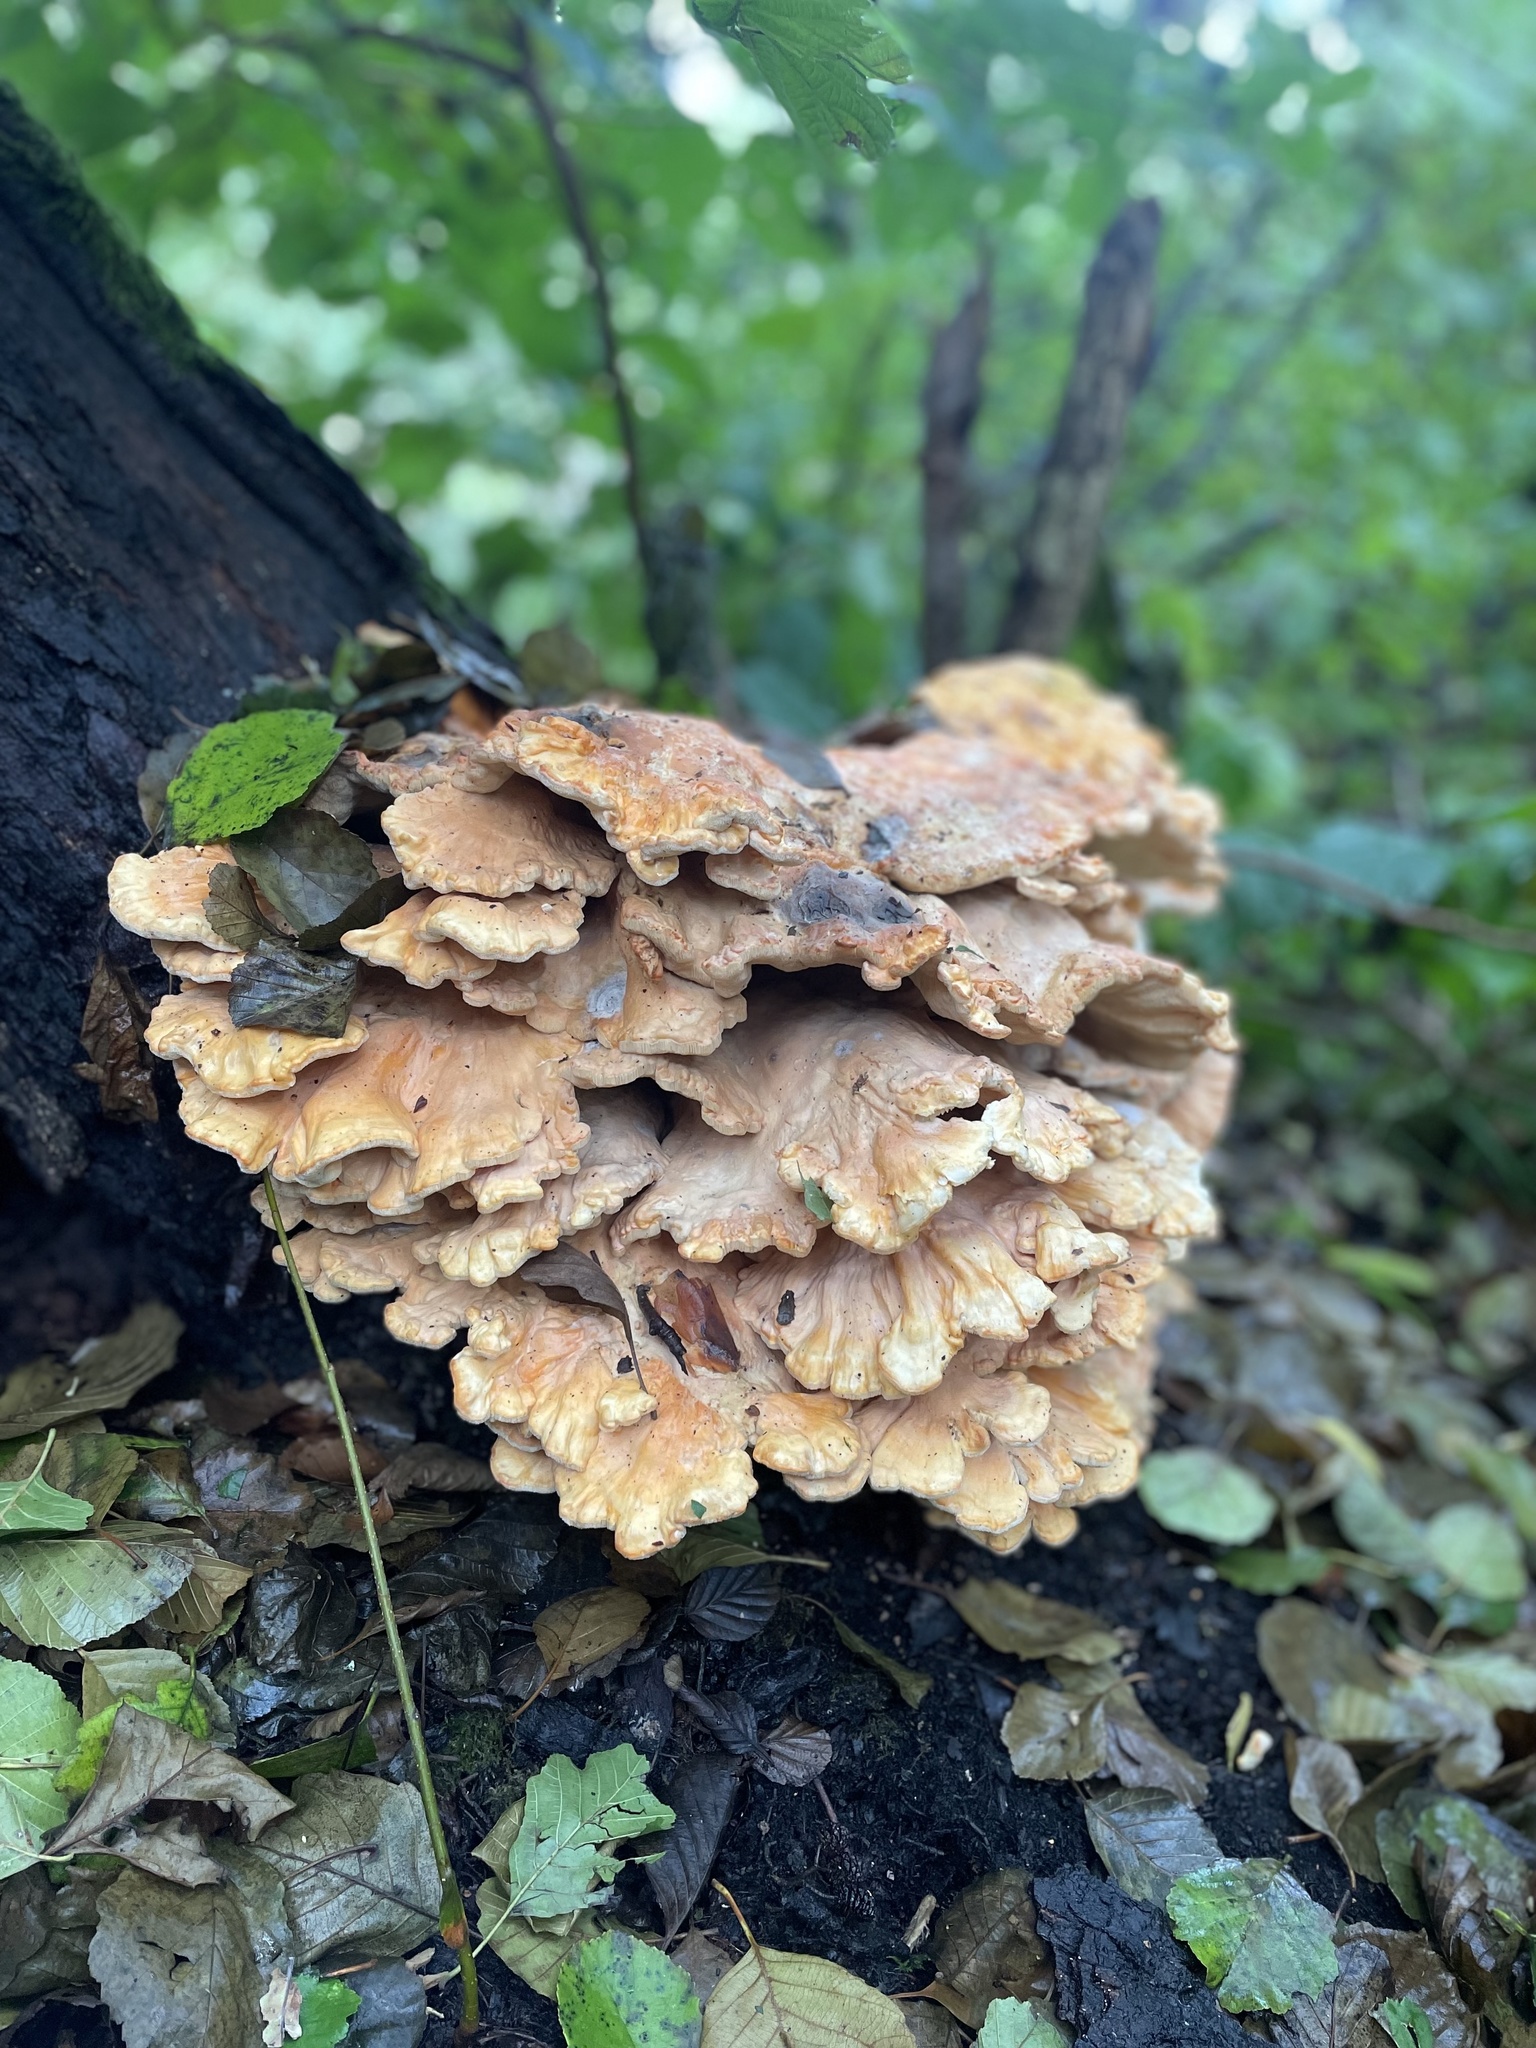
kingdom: Fungi
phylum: Basidiomycota
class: Agaricomycetes
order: Polyporales
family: Laetiporaceae
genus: Laetiporus
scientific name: Laetiporus sulphureus
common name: Chicken of the woods
